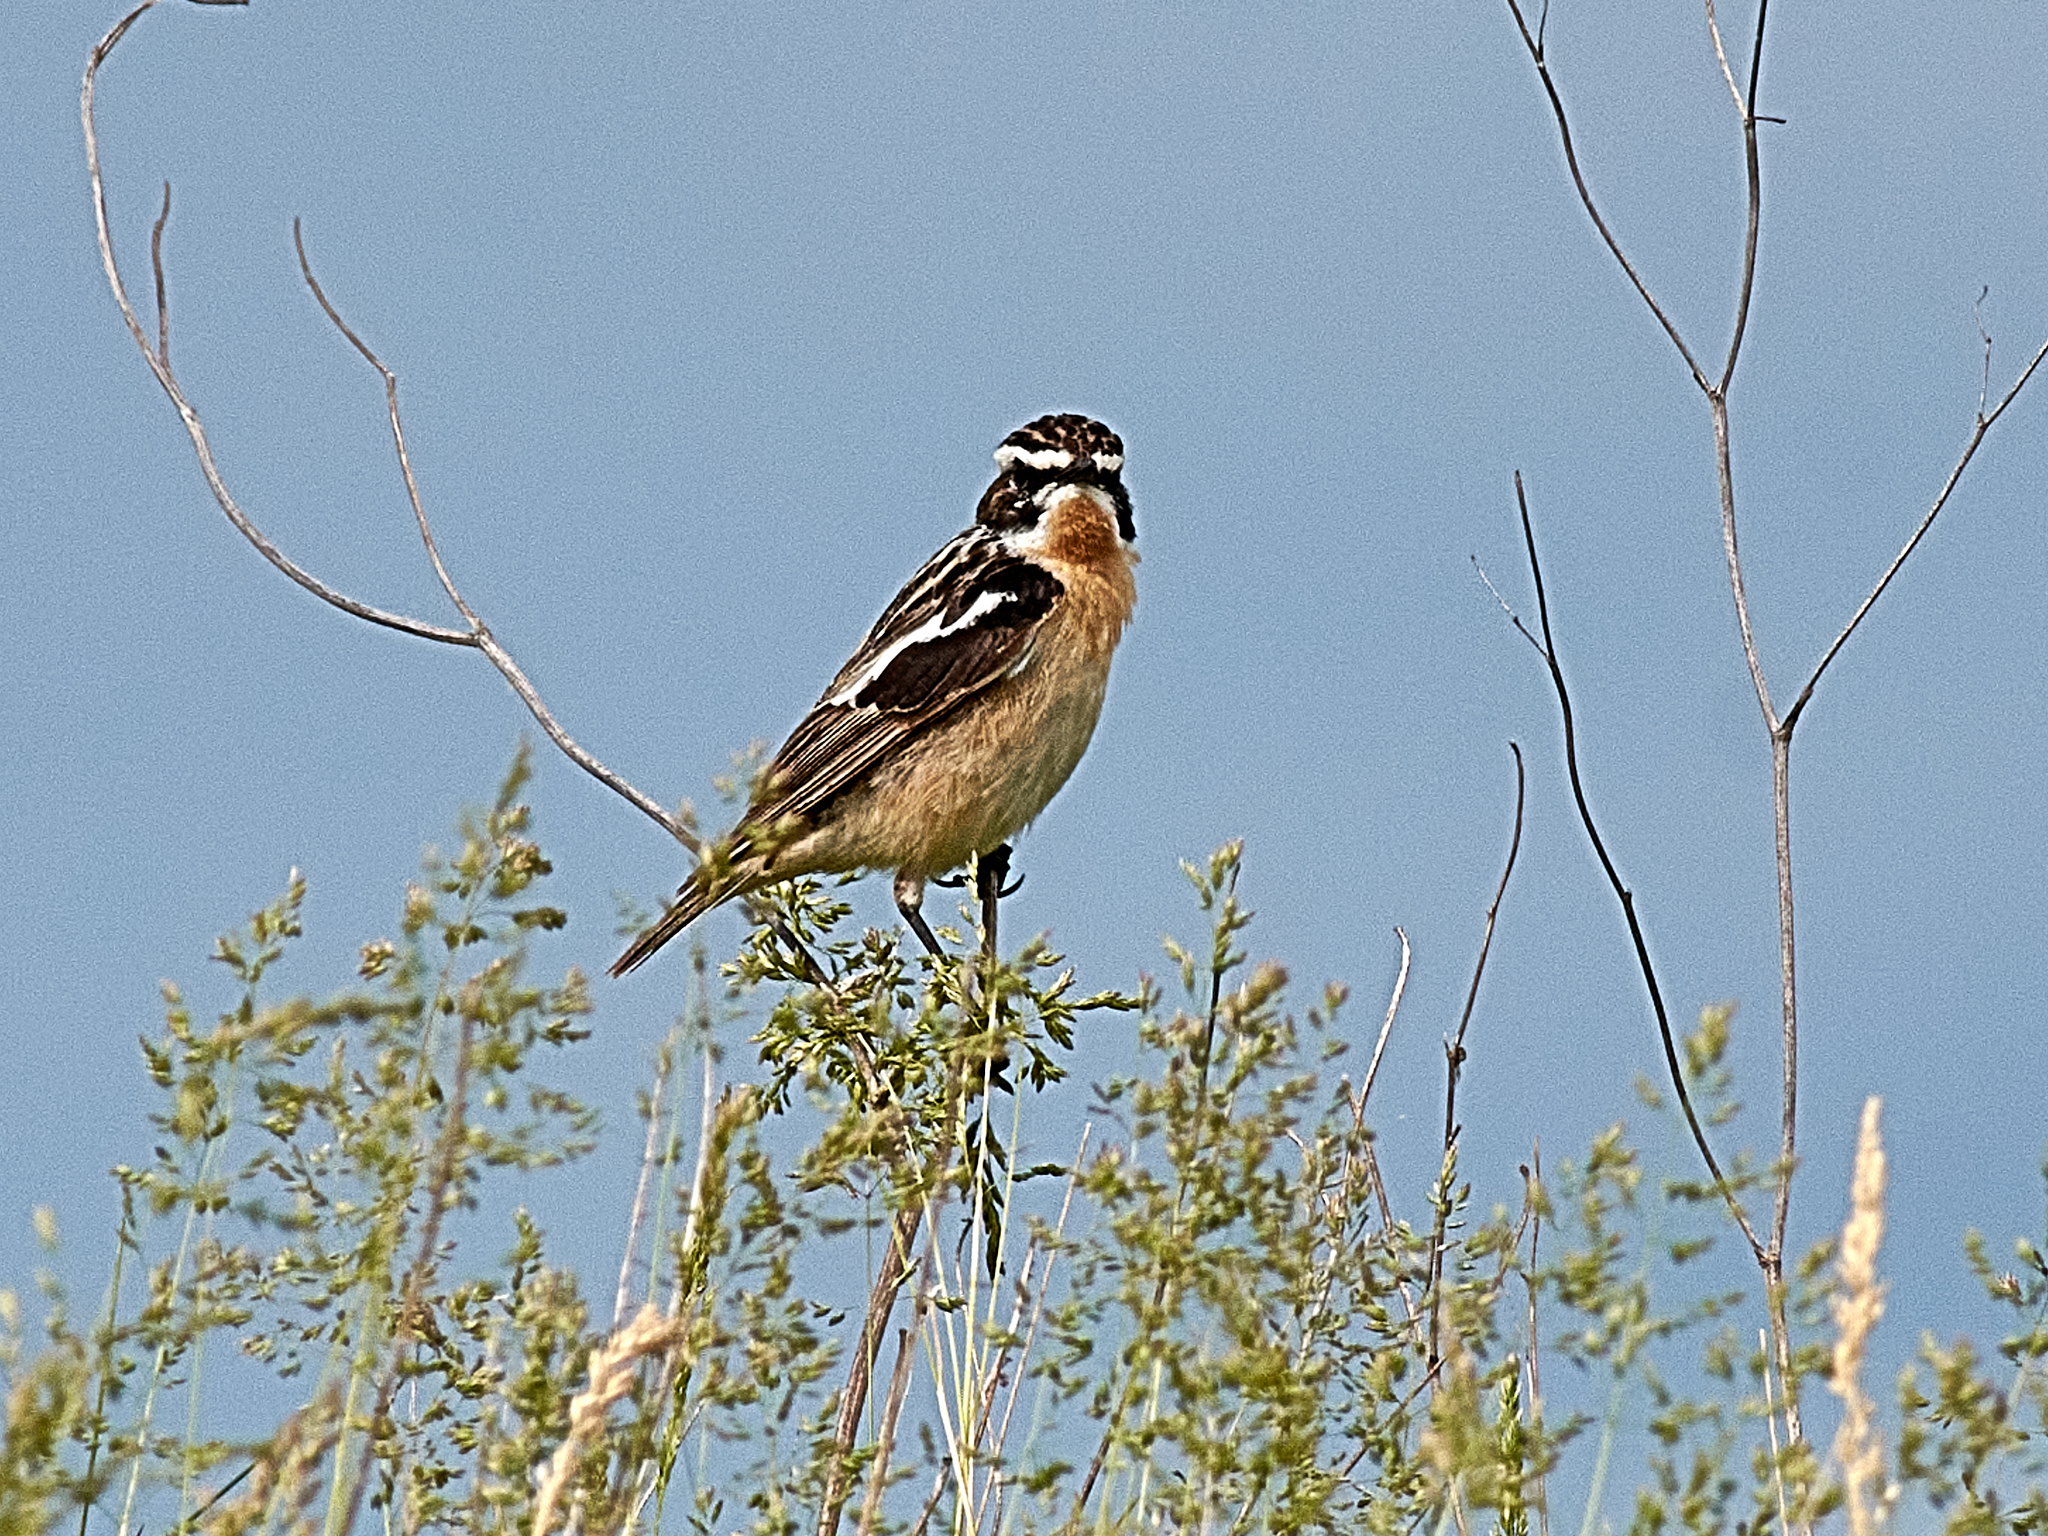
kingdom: Animalia
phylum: Chordata
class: Aves
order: Passeriformes
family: Muscicapidae
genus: Saxicola
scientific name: Saxicola rubetra
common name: Whinchat
